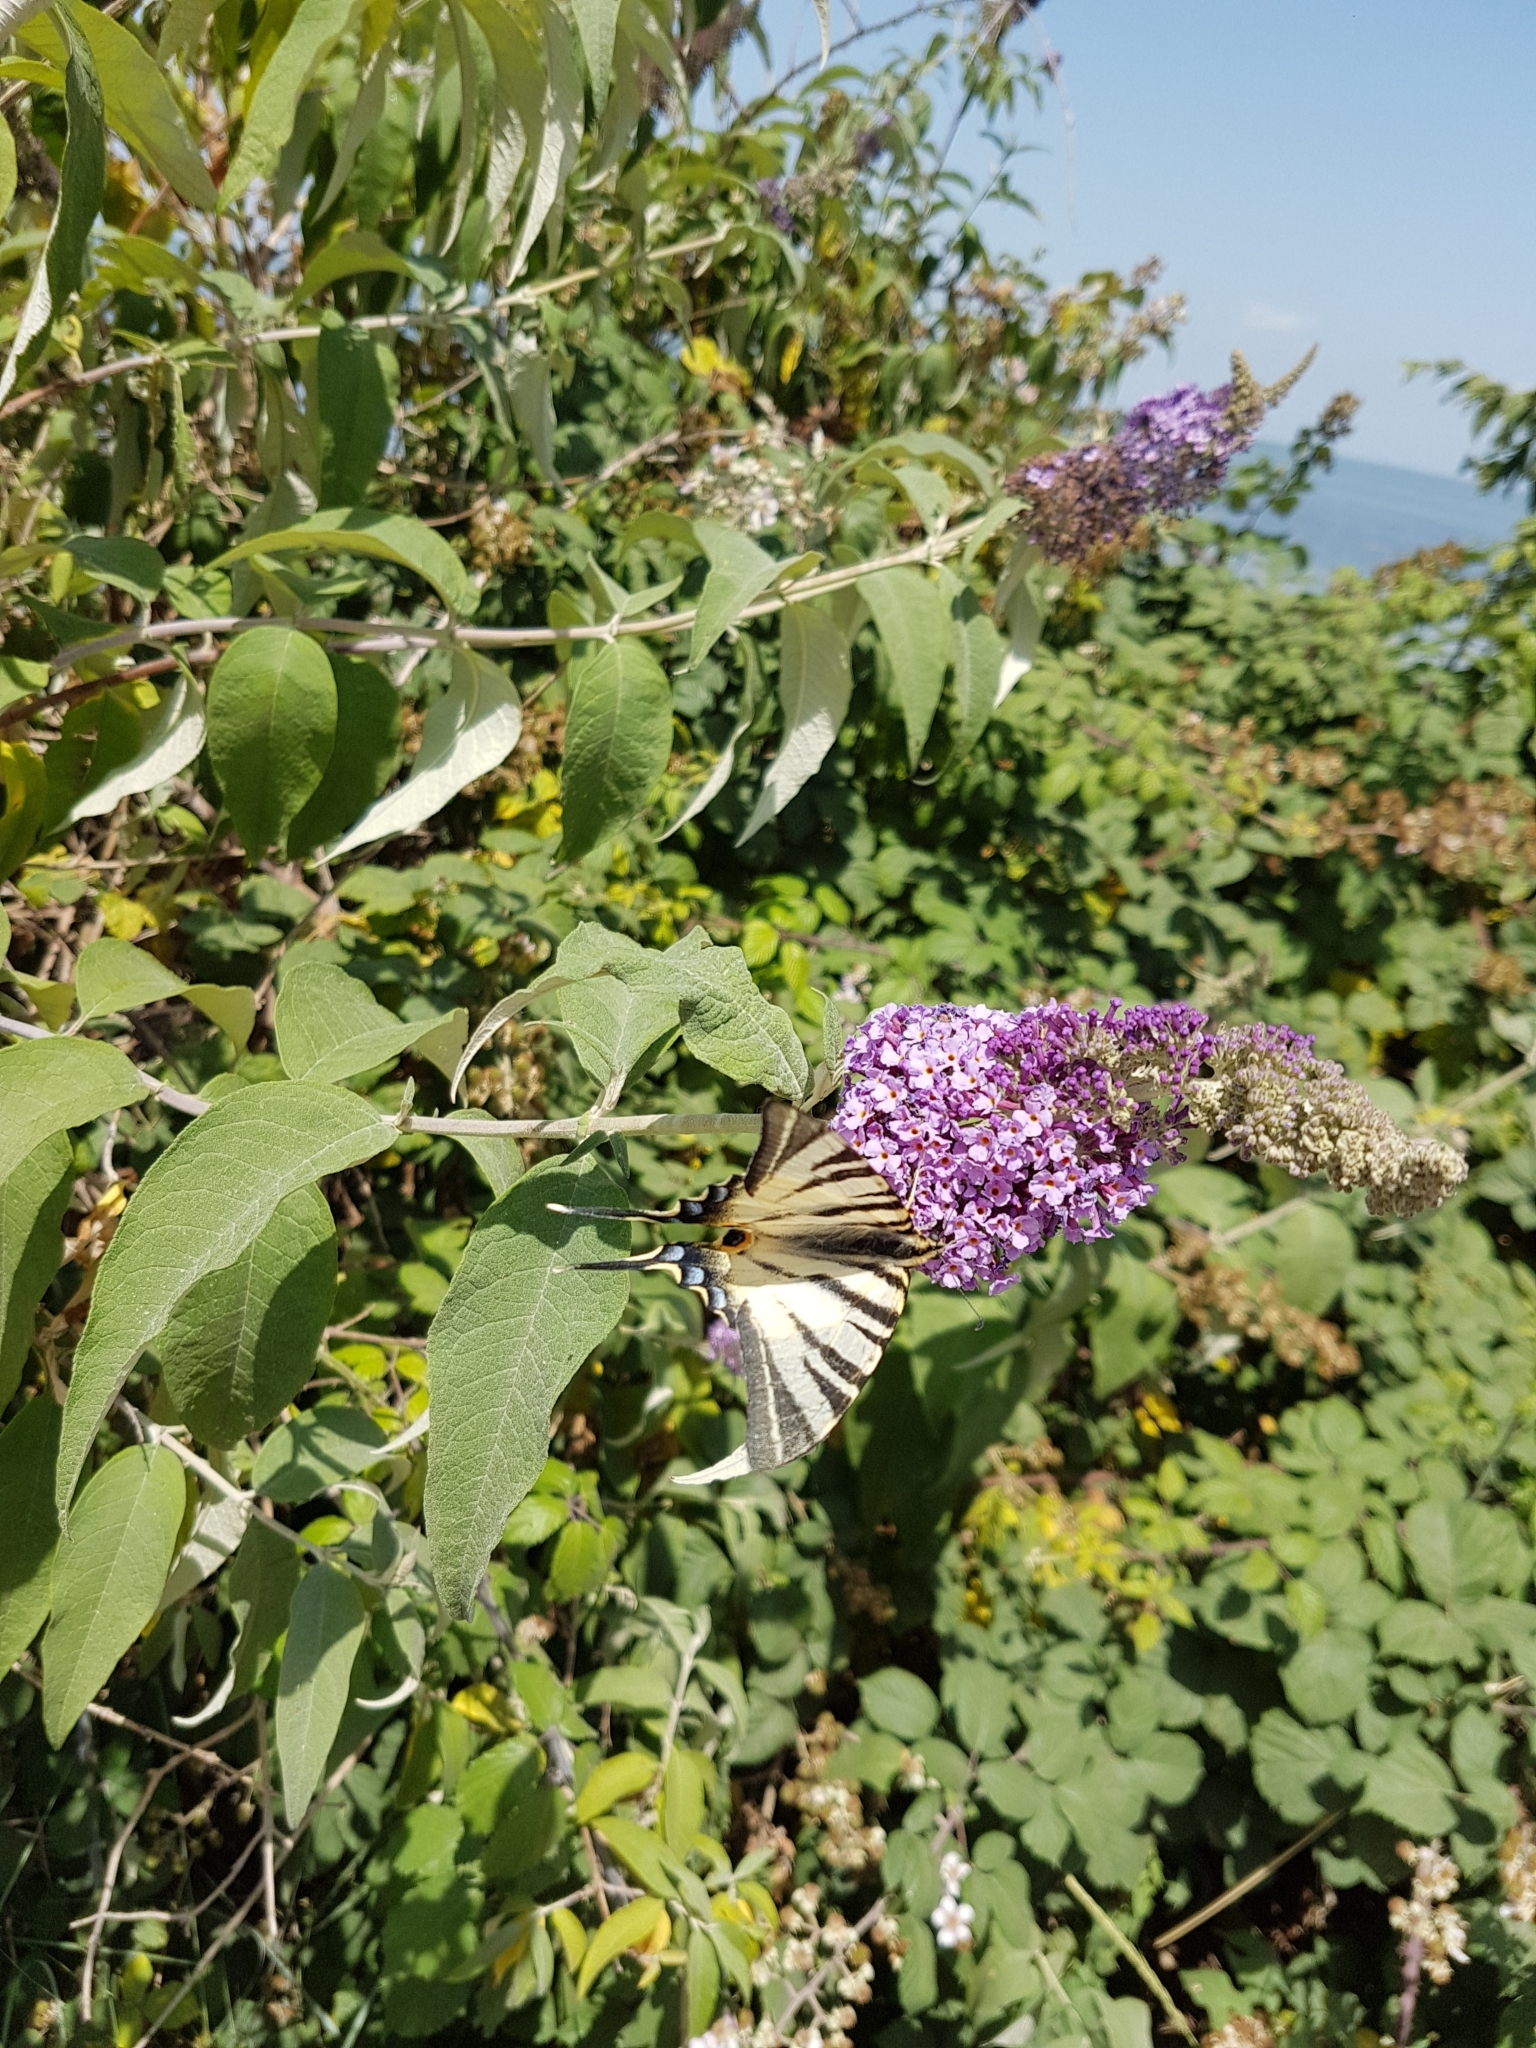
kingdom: Animalia
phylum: Arthropoda
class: Insecta
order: Lepidoptera
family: Papilionidae
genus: Iphiclides
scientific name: Iphiclides podalirius
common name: Scarce swallowtail
